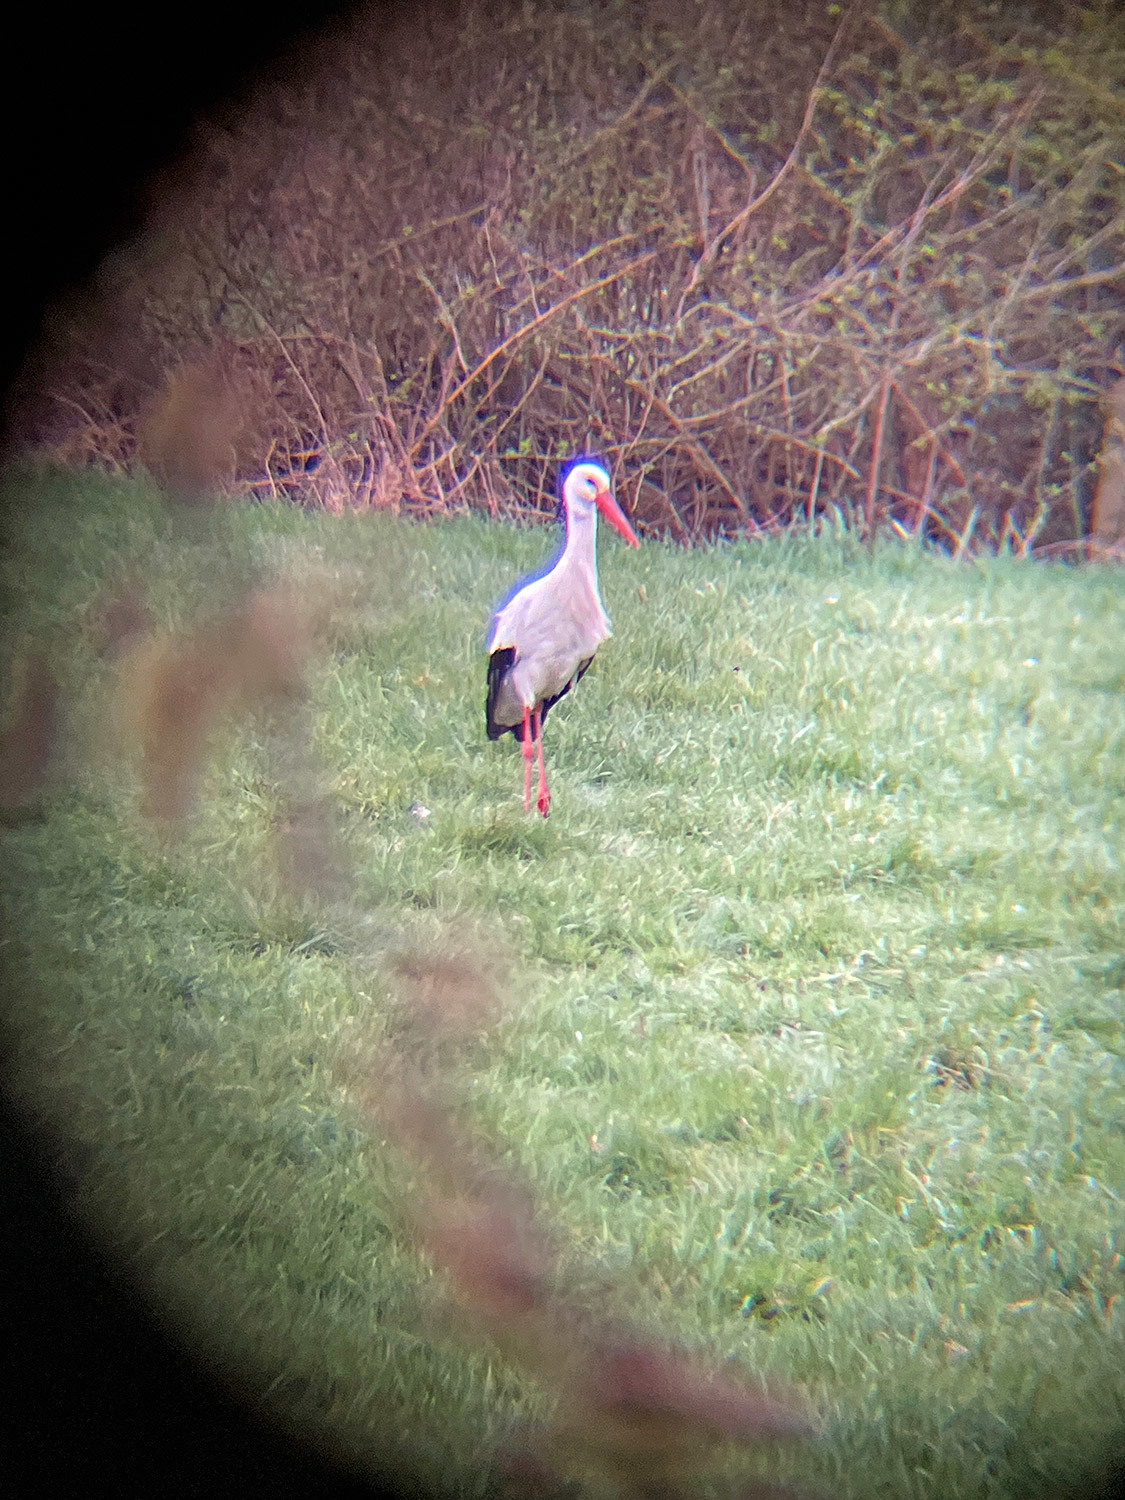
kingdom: Animalia
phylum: Chordata
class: Aves
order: Ciconiiformes
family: Ciconiidae
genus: Ciconia
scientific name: Ciconia ciconia
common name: White stork
